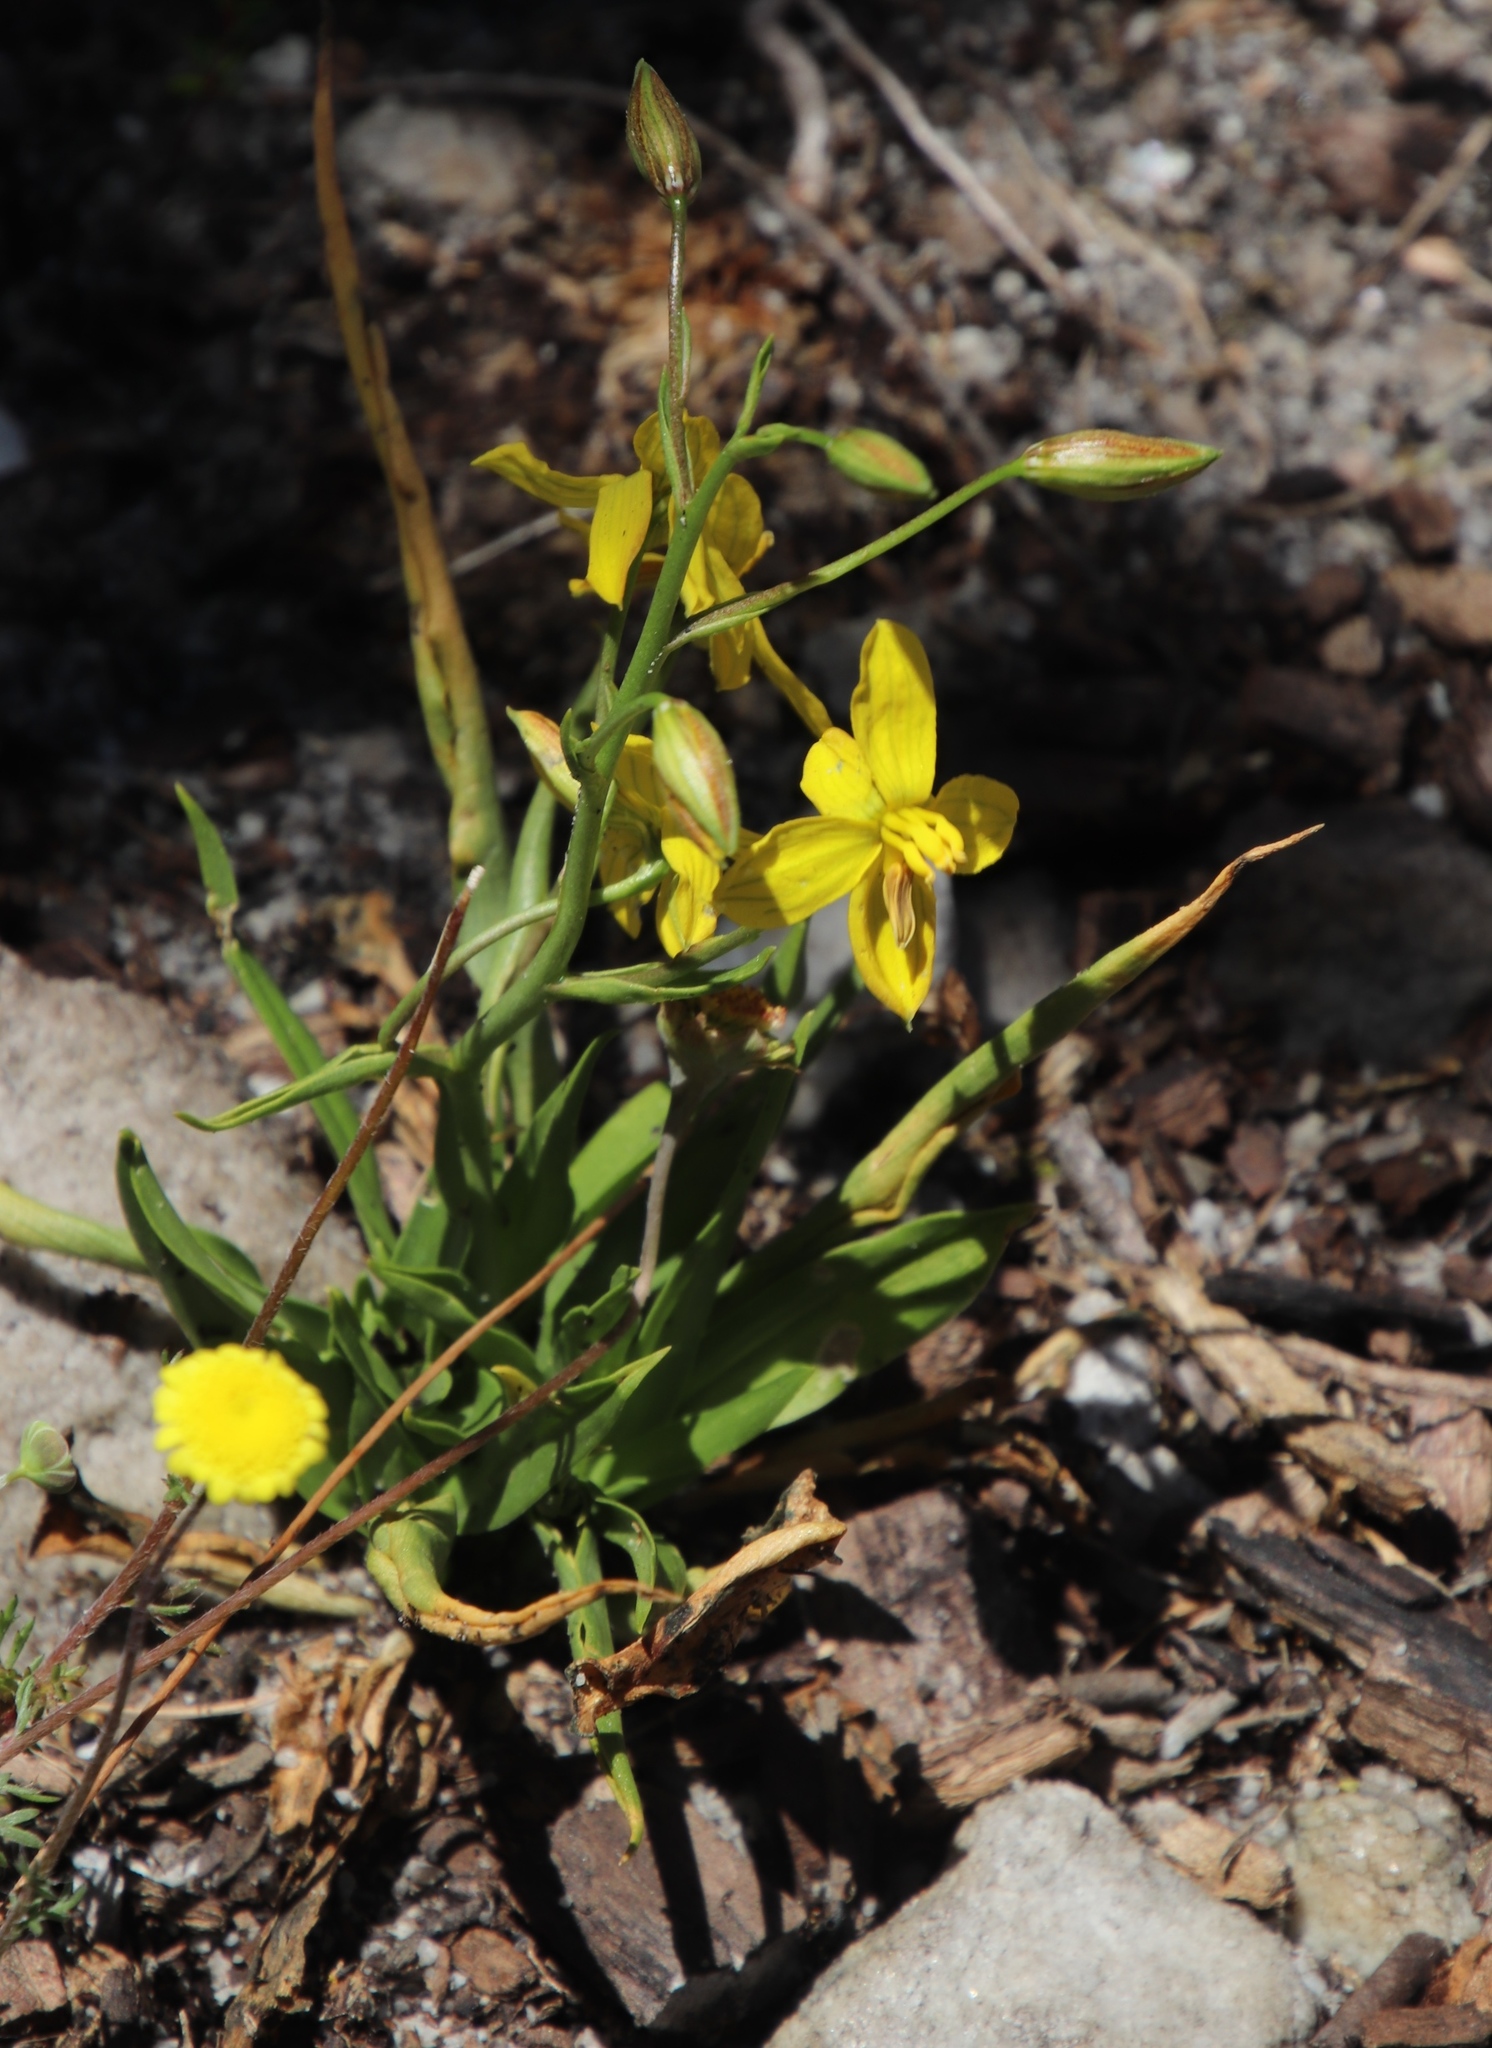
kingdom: Plantae
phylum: Tracheophyta
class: Liliopsida
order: Asparagales
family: Tecophilaeaceae
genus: Cyanella
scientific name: Cyanella lutea
